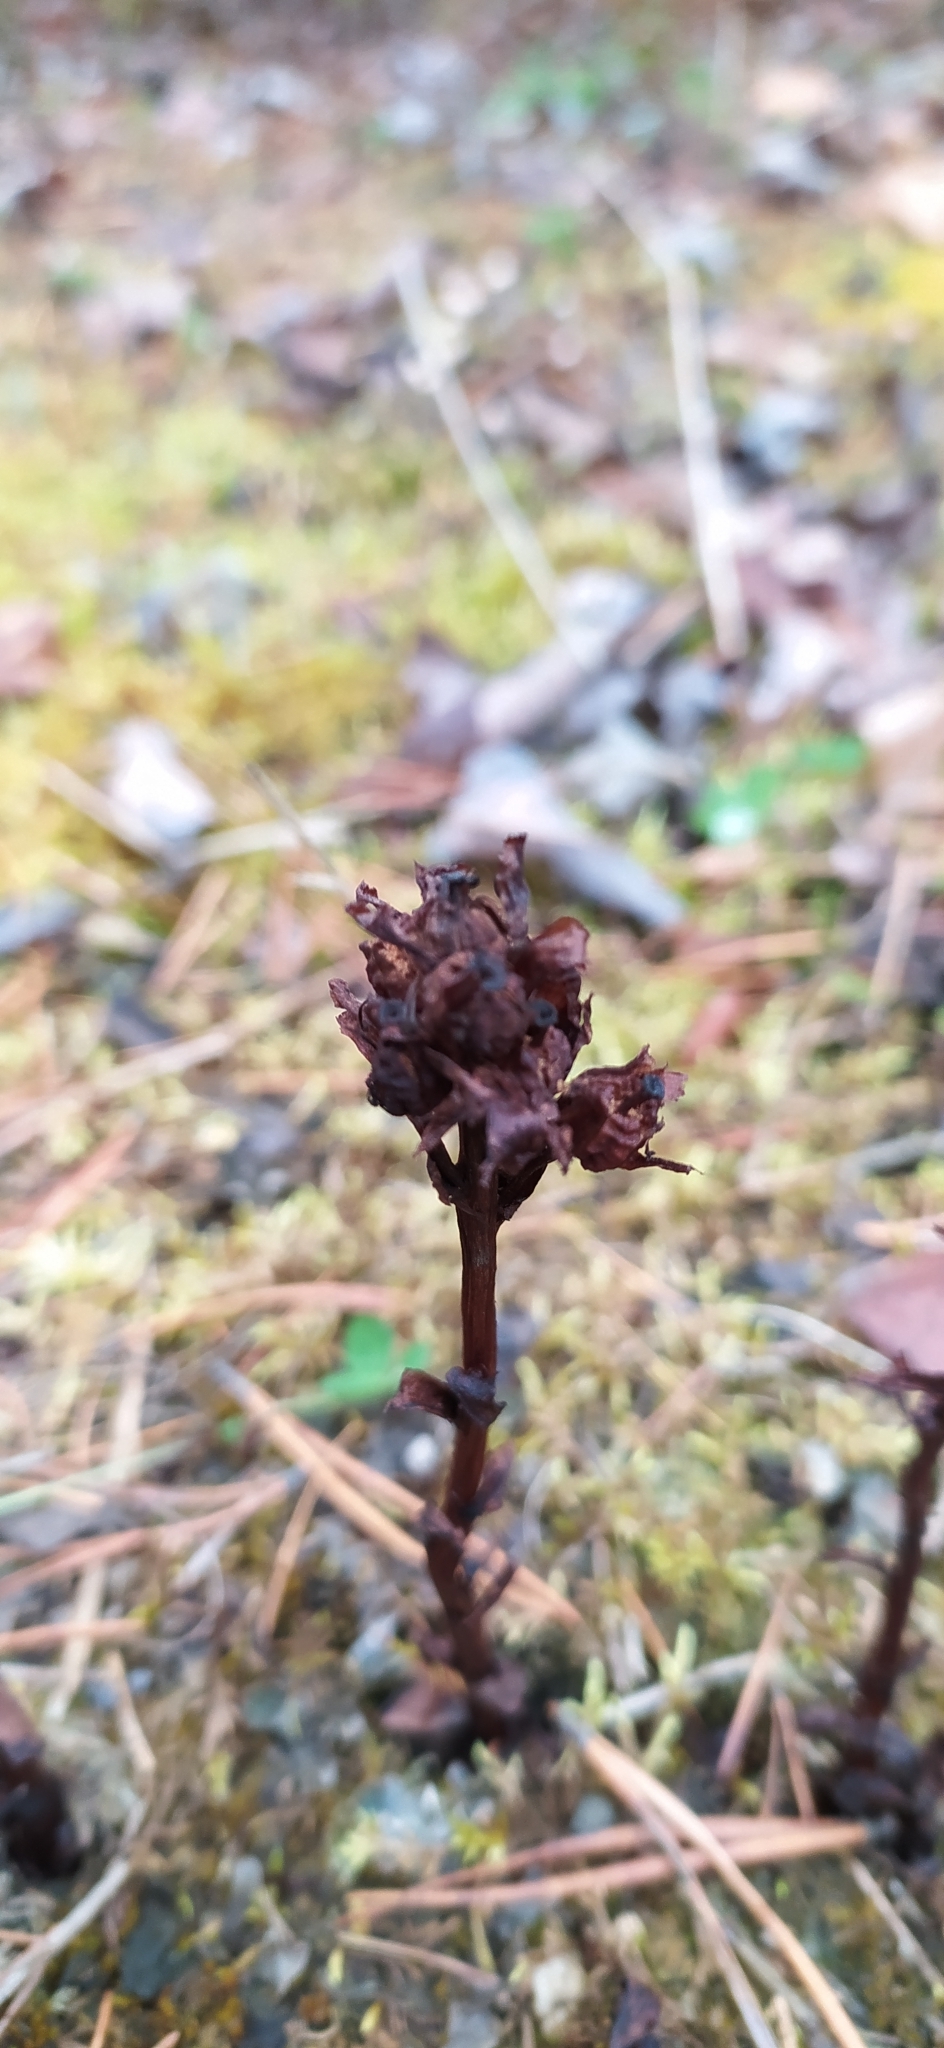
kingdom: Plantae
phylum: Tracheophyta
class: Magnoliopsida
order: Ericales
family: Ericaceae
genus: Hypopitys
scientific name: Hypopitys monotropa
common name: Yellow bird's-nest
